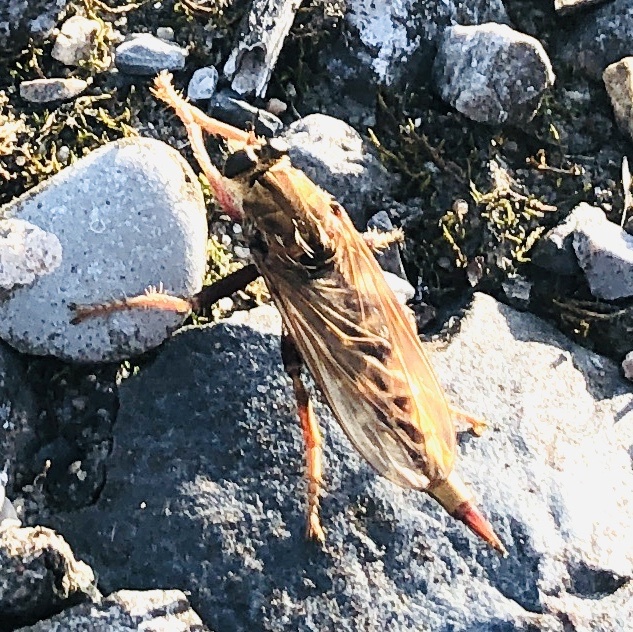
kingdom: Animalia
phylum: Arthropoda
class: Insecta
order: Diptera
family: Asilidae
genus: Asilus
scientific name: Asilus crabroniformis
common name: Hornet robberfly
